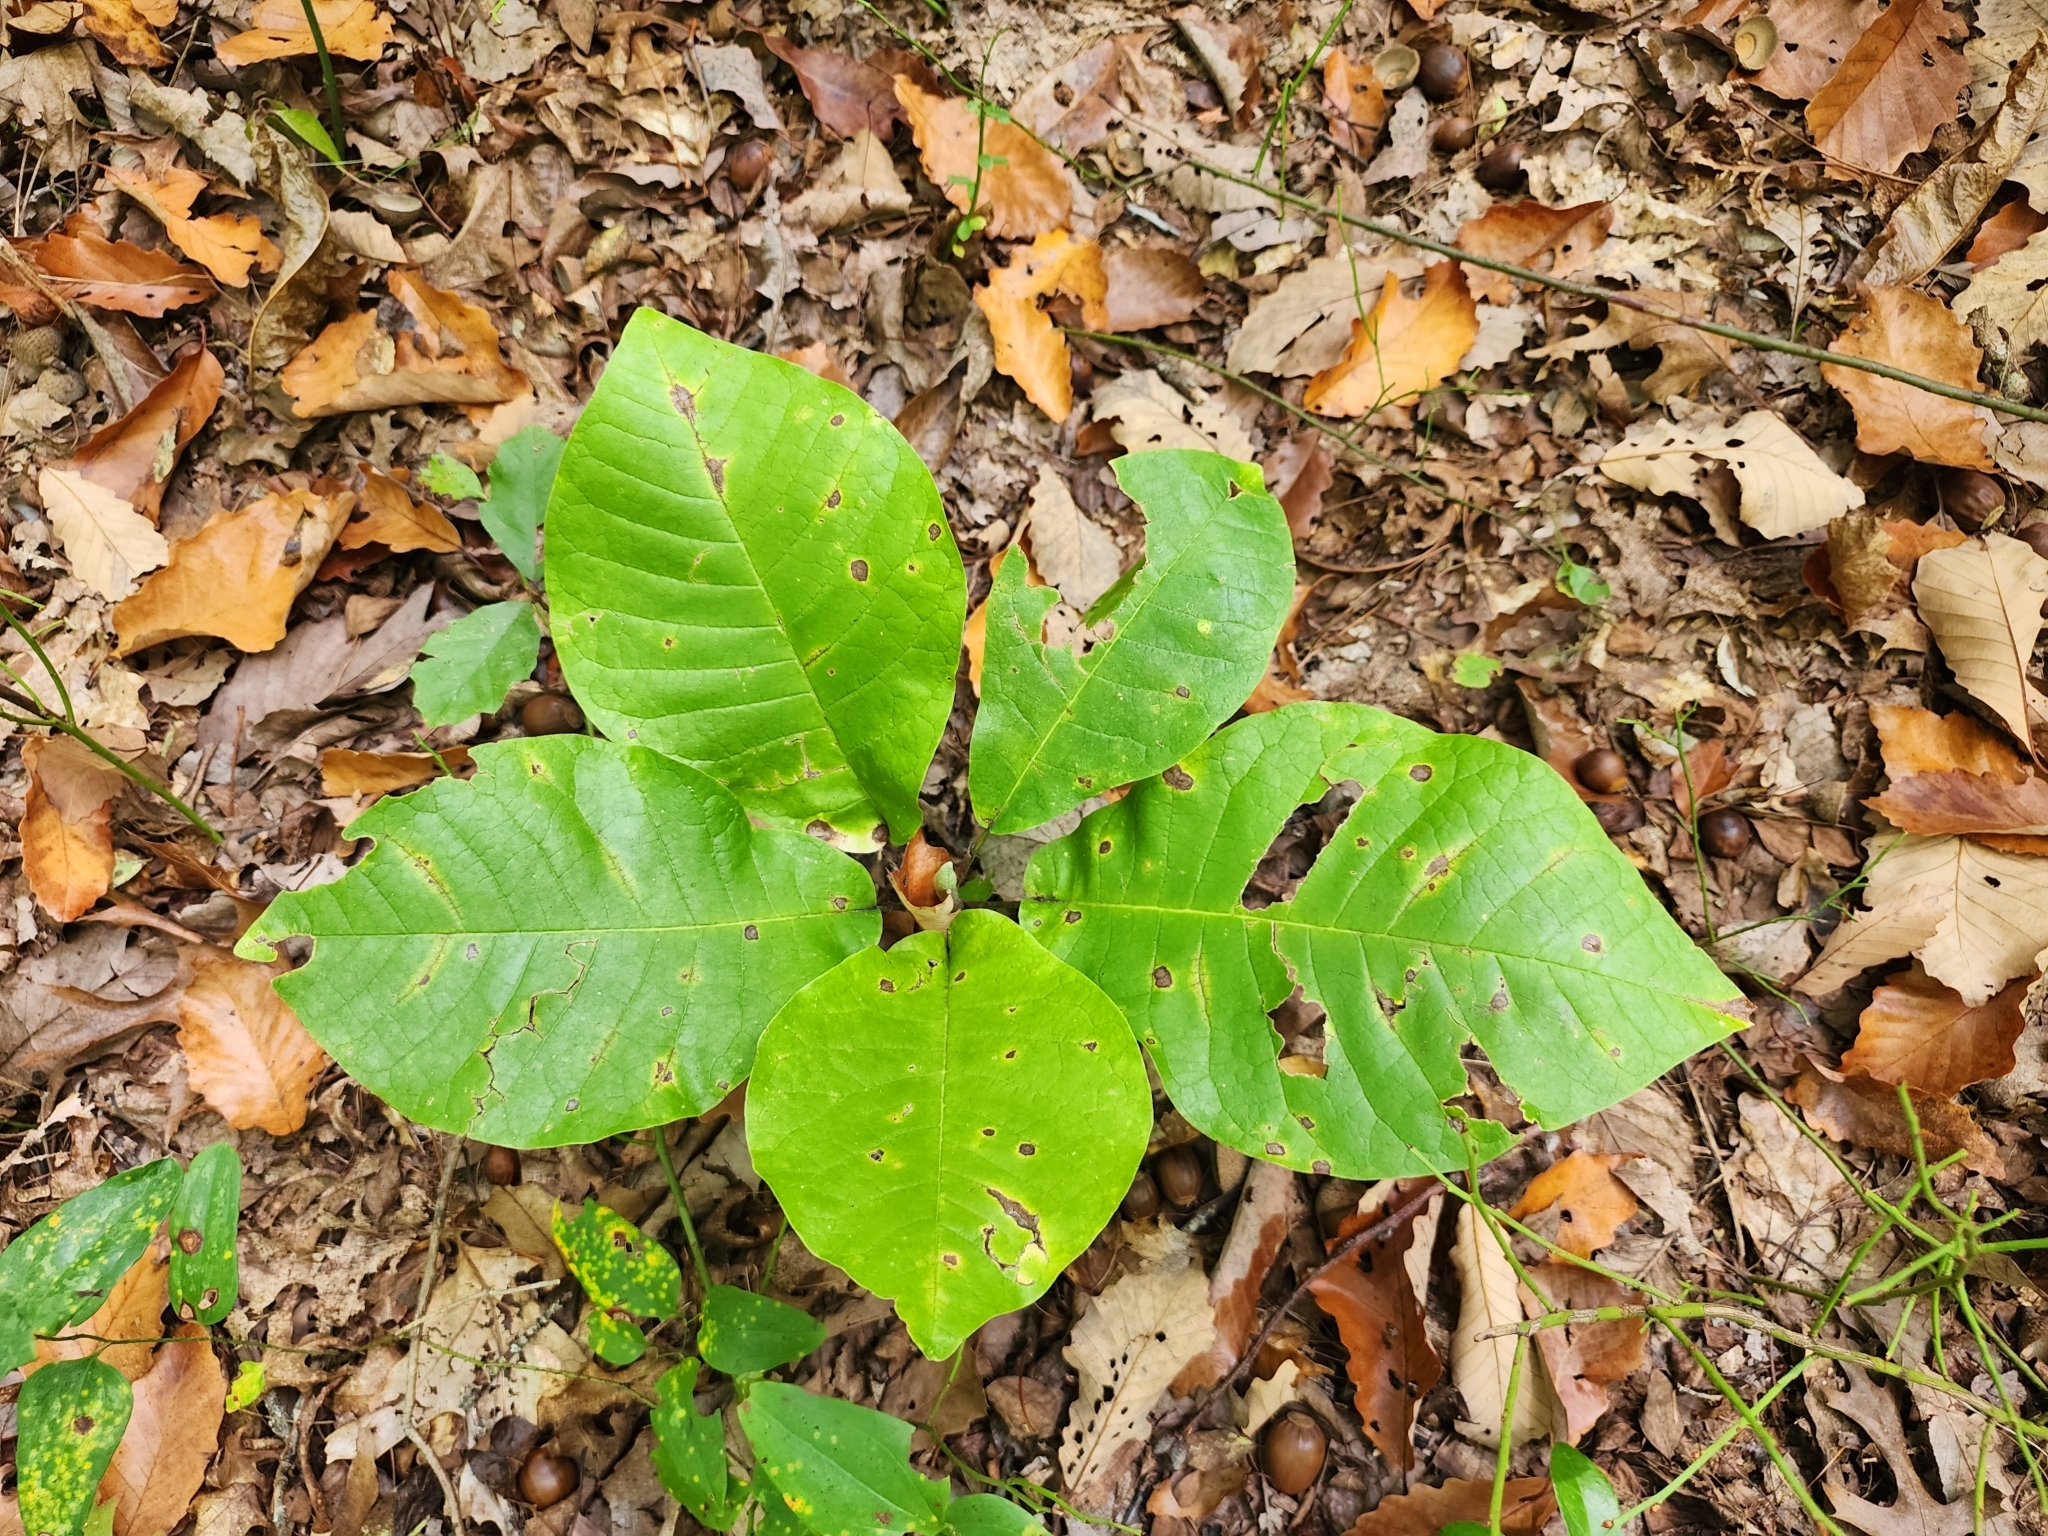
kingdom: Plantae
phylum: Tracheophyta
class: Magnoliopsida
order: Magnoliales
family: Magnoliaceae
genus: Magnolia
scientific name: Magnolia macrophylla
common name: Big-leaf magnolia
